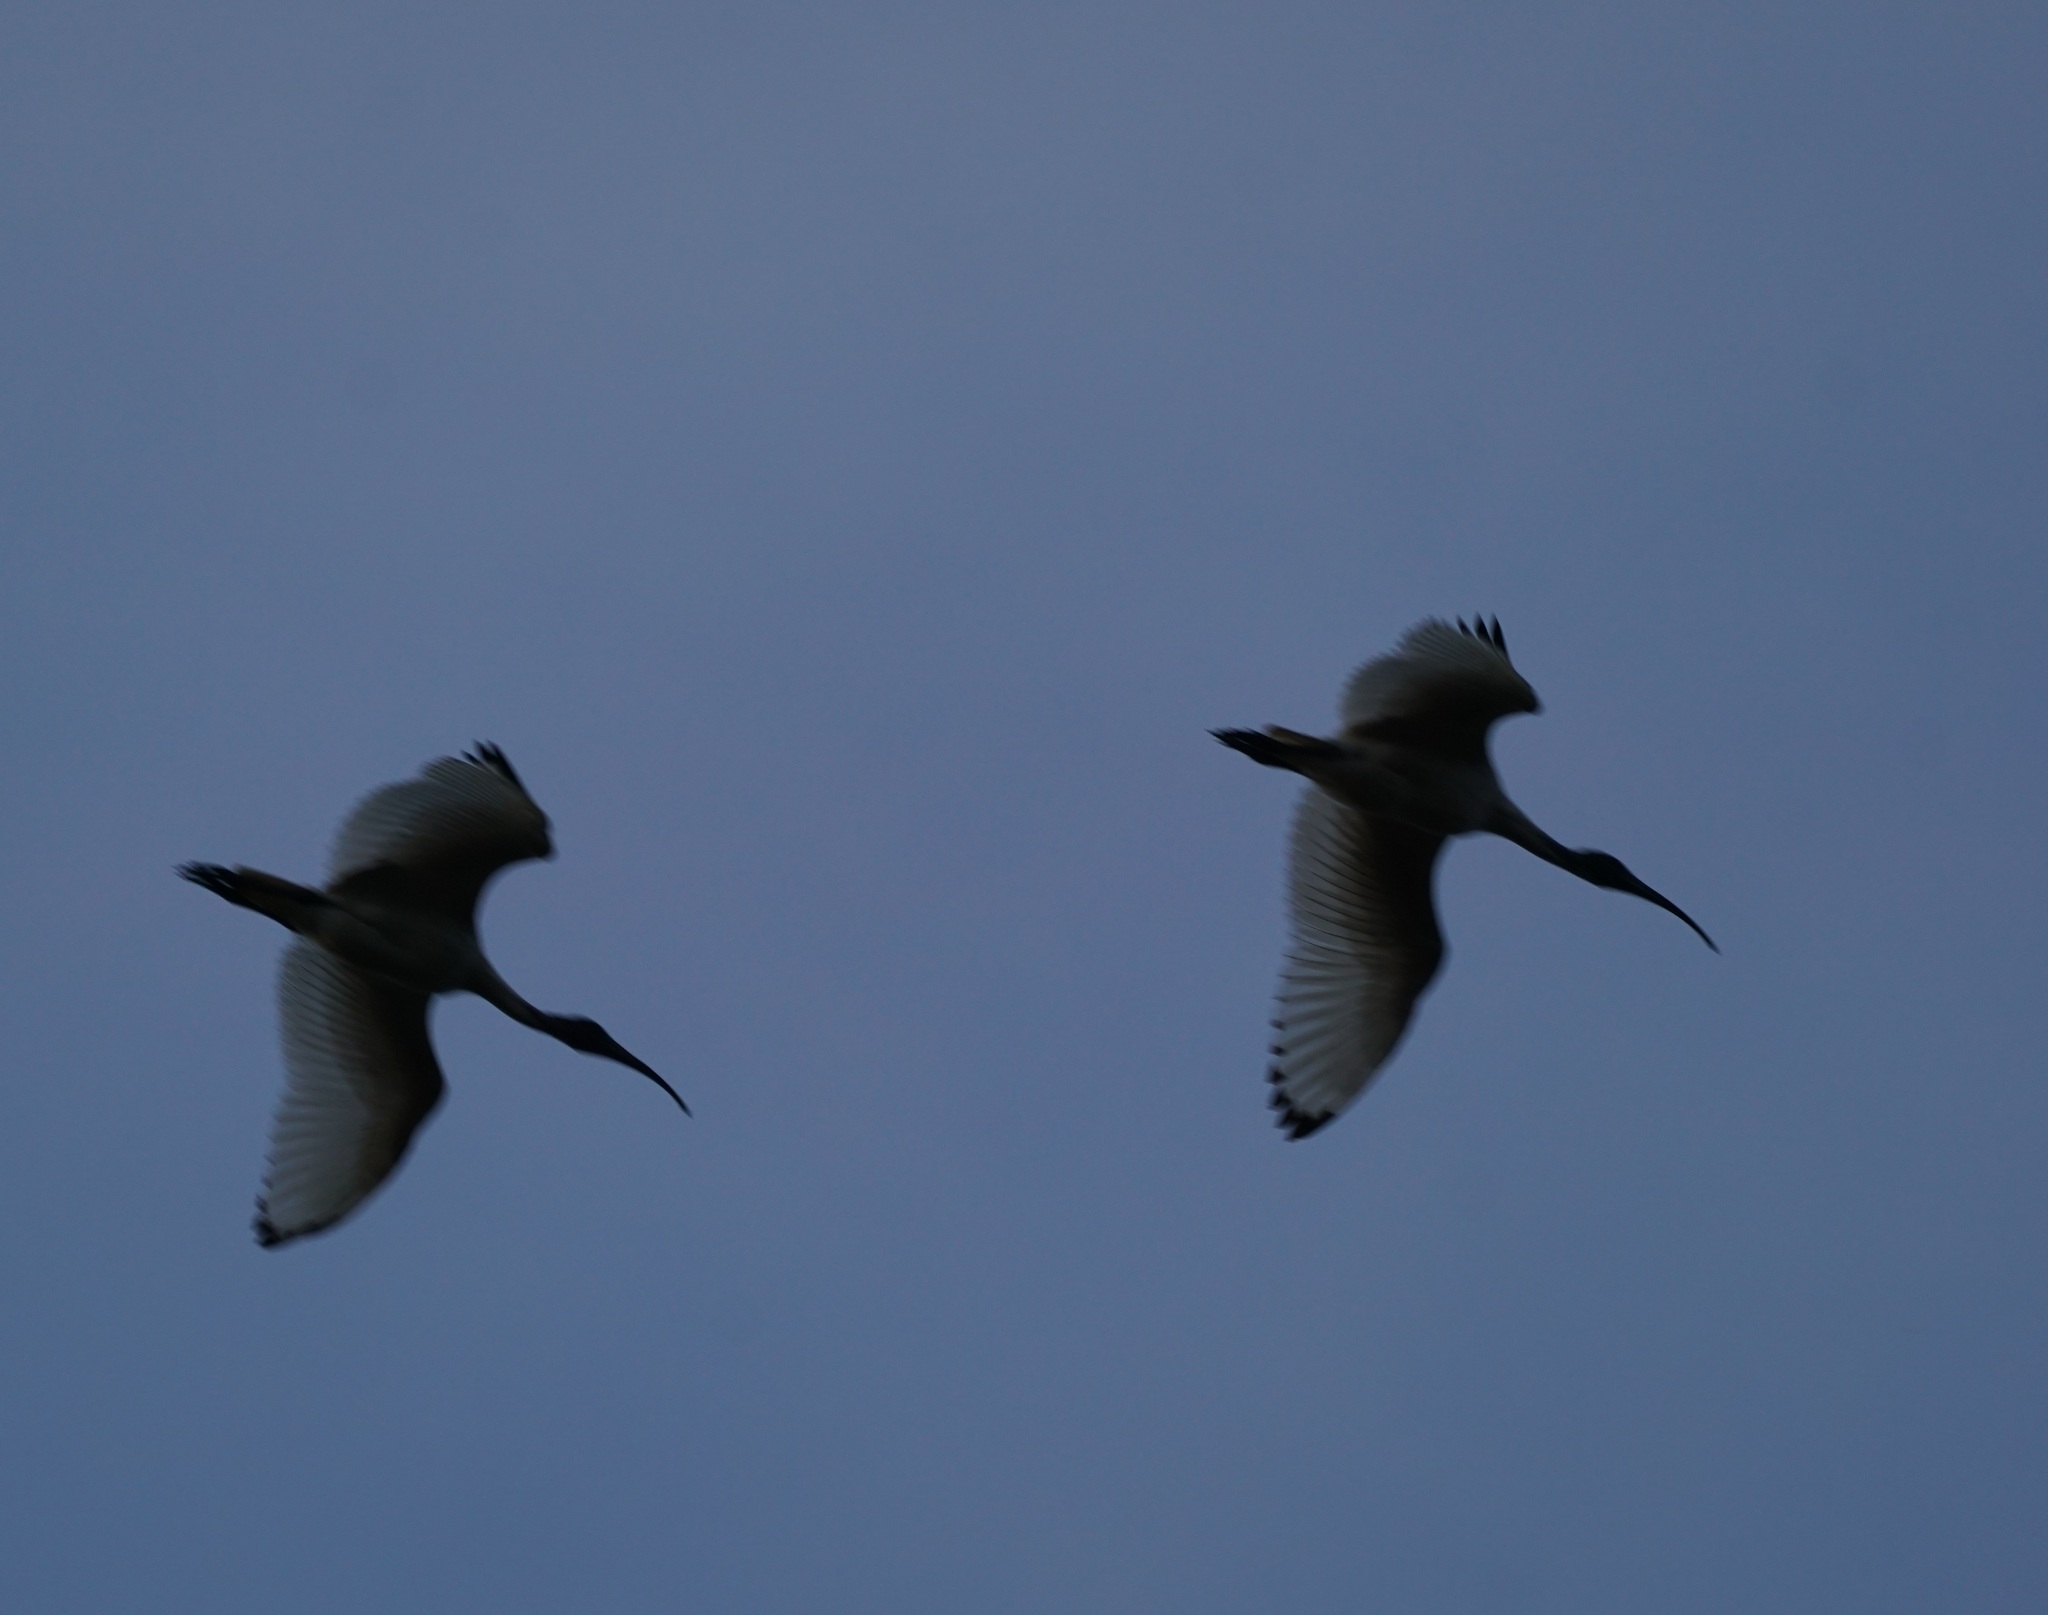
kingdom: Animalia
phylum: Chordata
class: Aves
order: Pelecaniformes
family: Threskiornithidae
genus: Threskiornis
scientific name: Threskiornis molucca
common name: Australian white ibis
